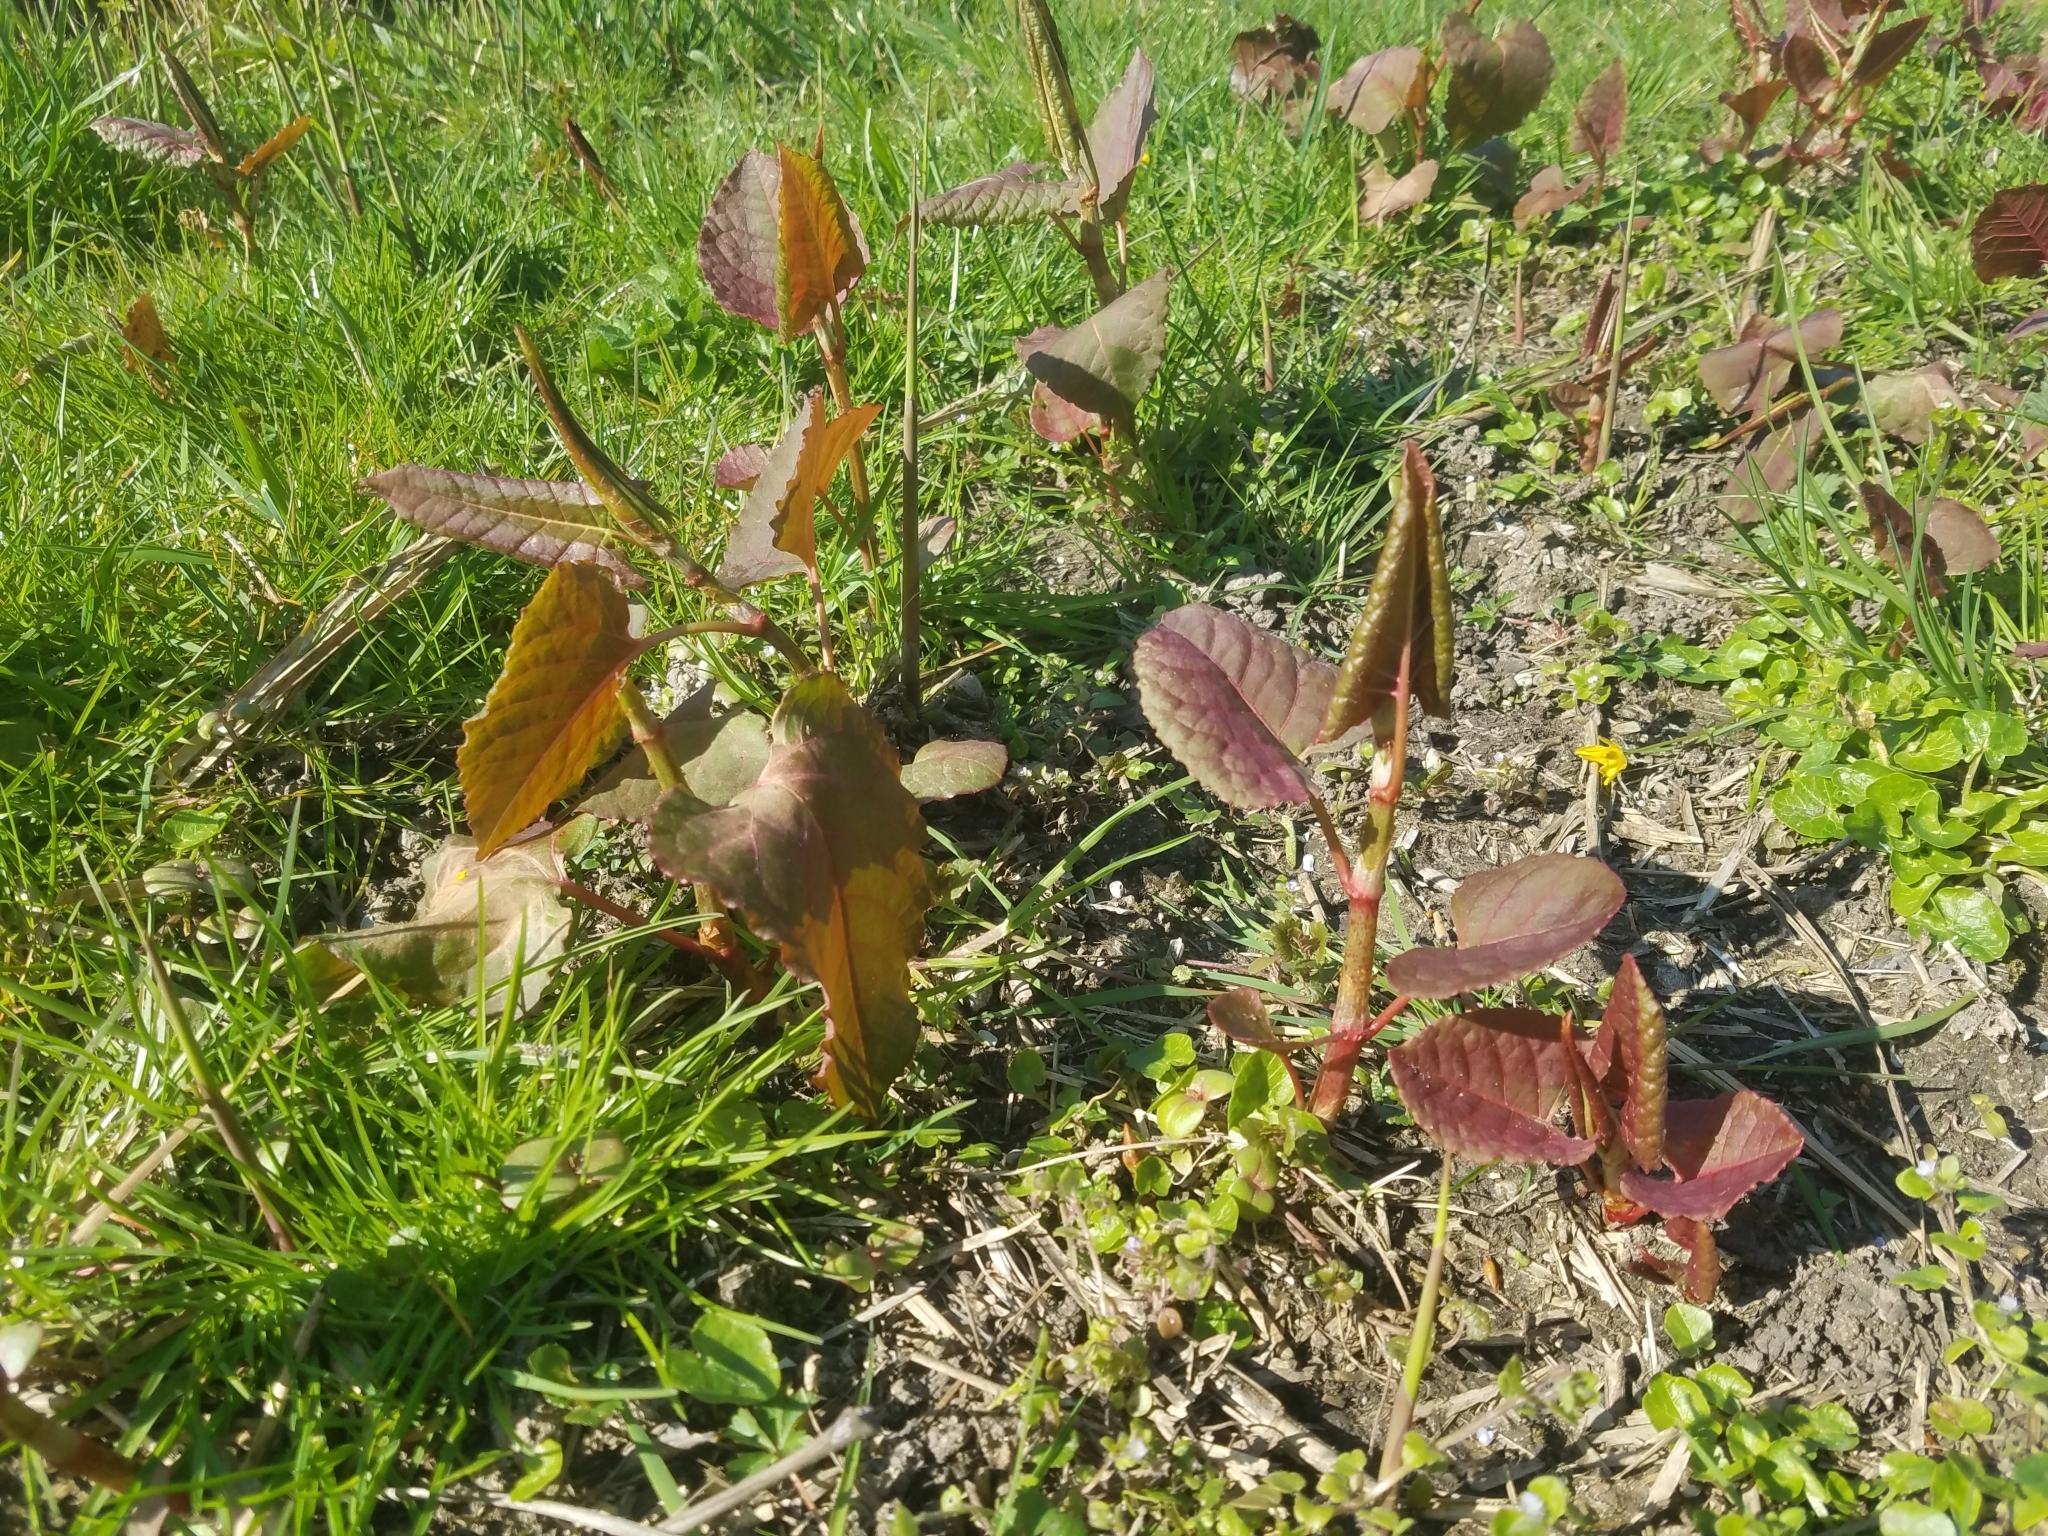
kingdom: Plantae
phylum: Tracheophyta
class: Magnoliopsida
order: Caryophyllales
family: Polygonaceae
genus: Reynoutria
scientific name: Reynoutria japonica
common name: Japanese knotweed
